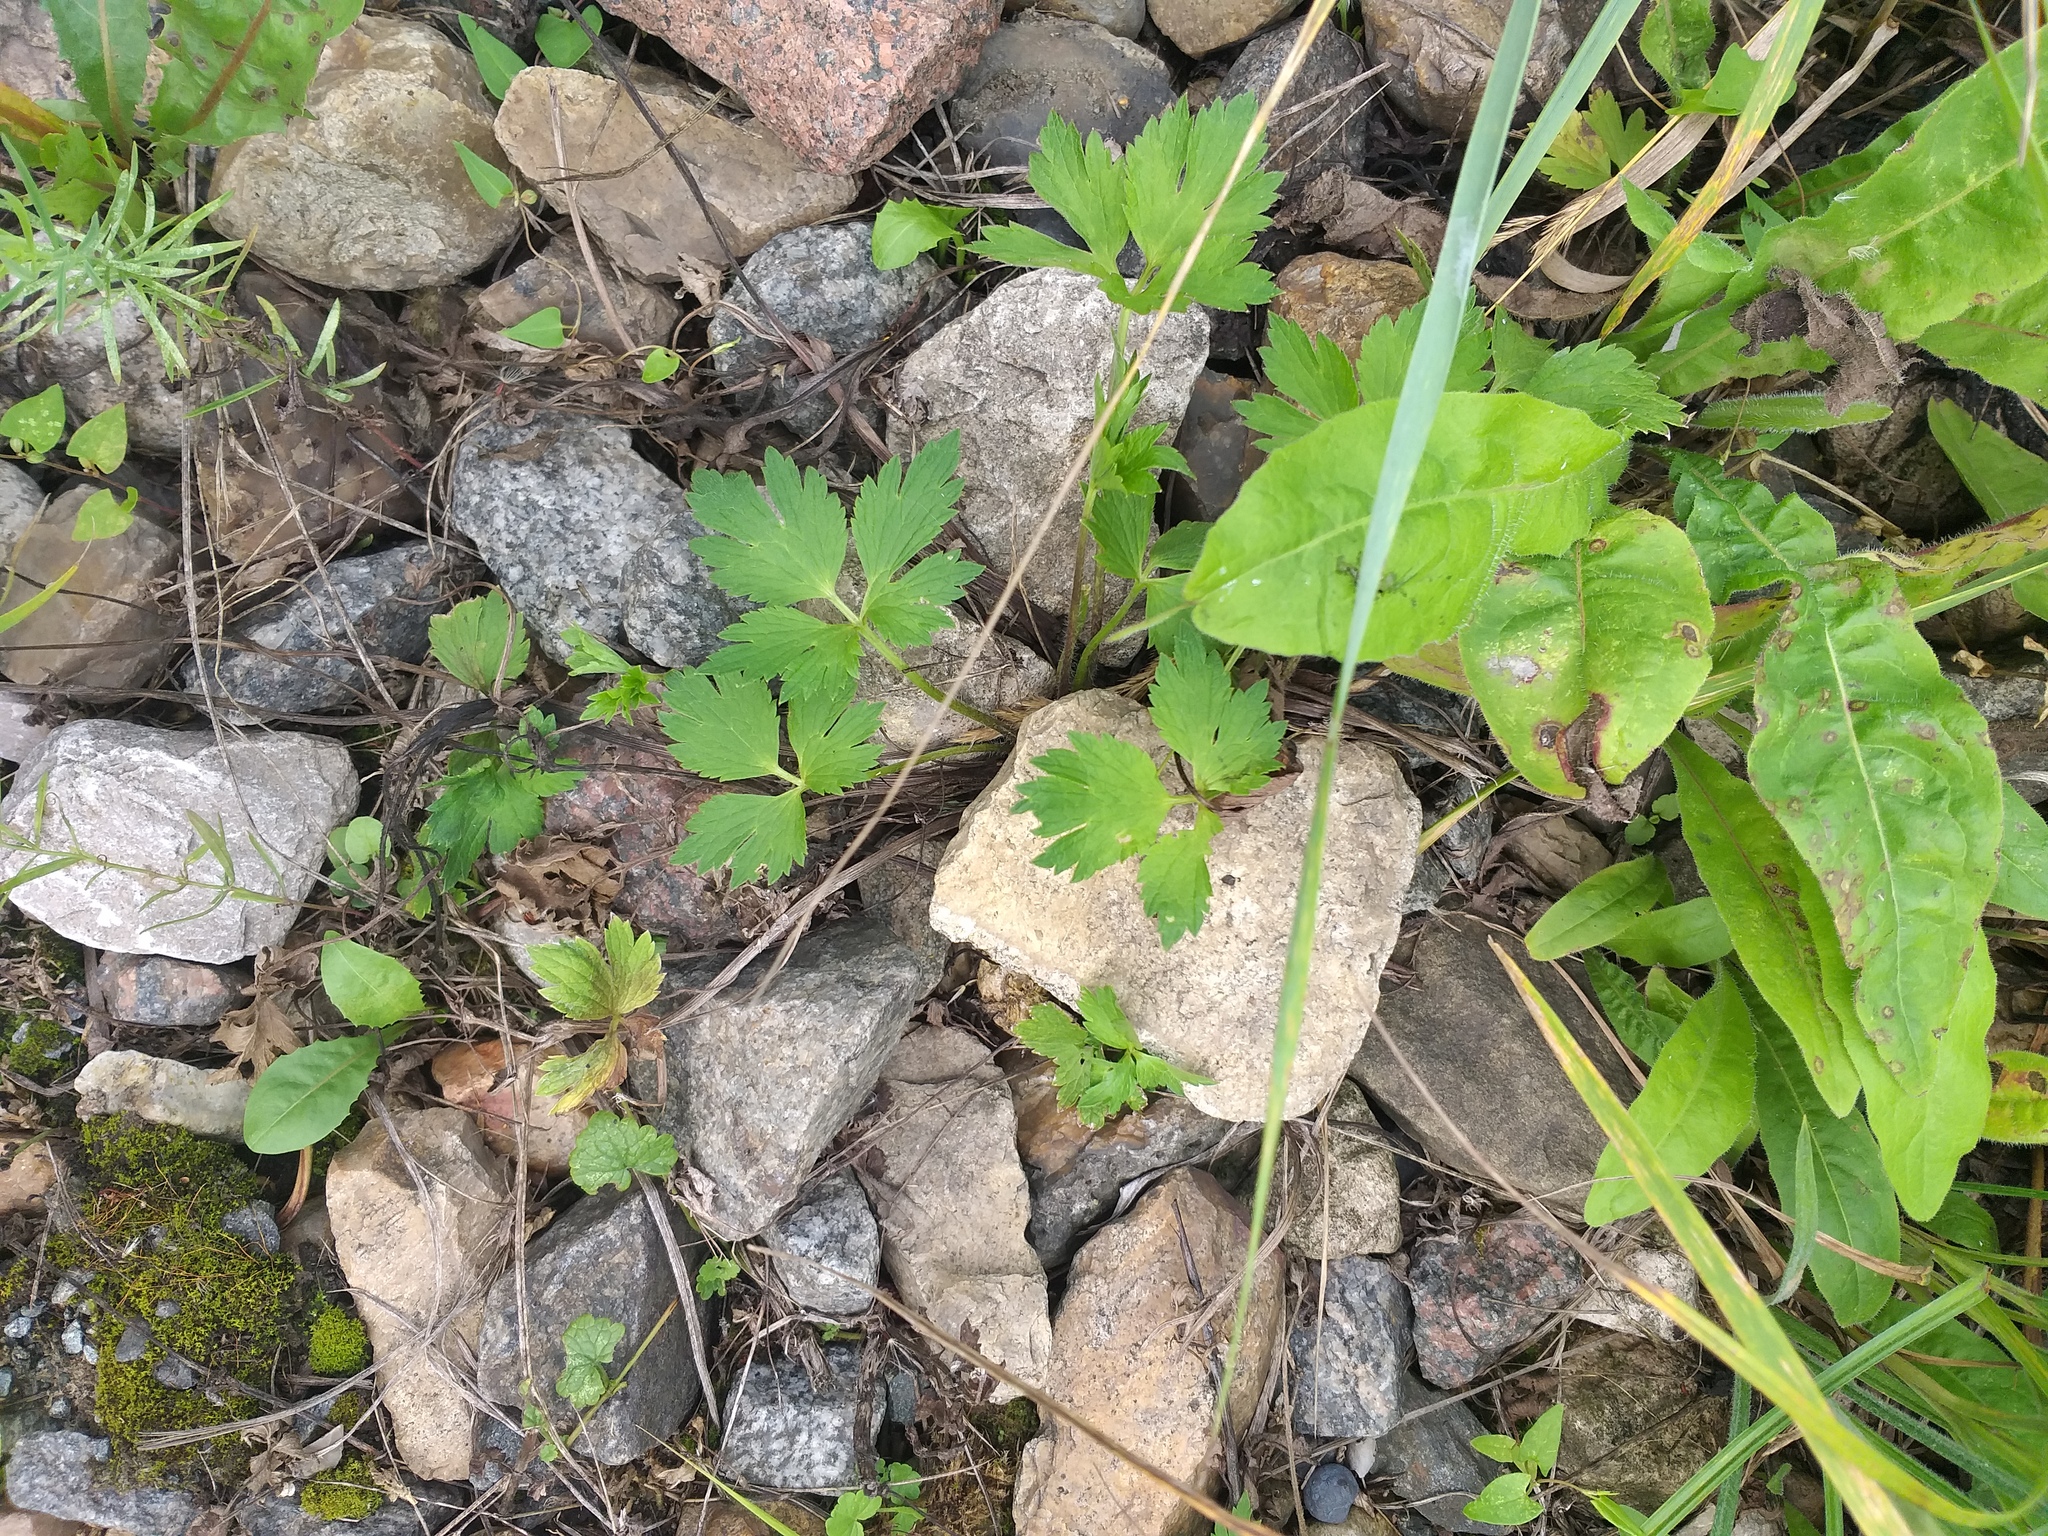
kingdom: Plantae
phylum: Tracheophyta
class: Magnoliopsida
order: Ranunculales
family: Ranunculaceae
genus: Ranunculus
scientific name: Ranunculus repens
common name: Creeping buttercup
